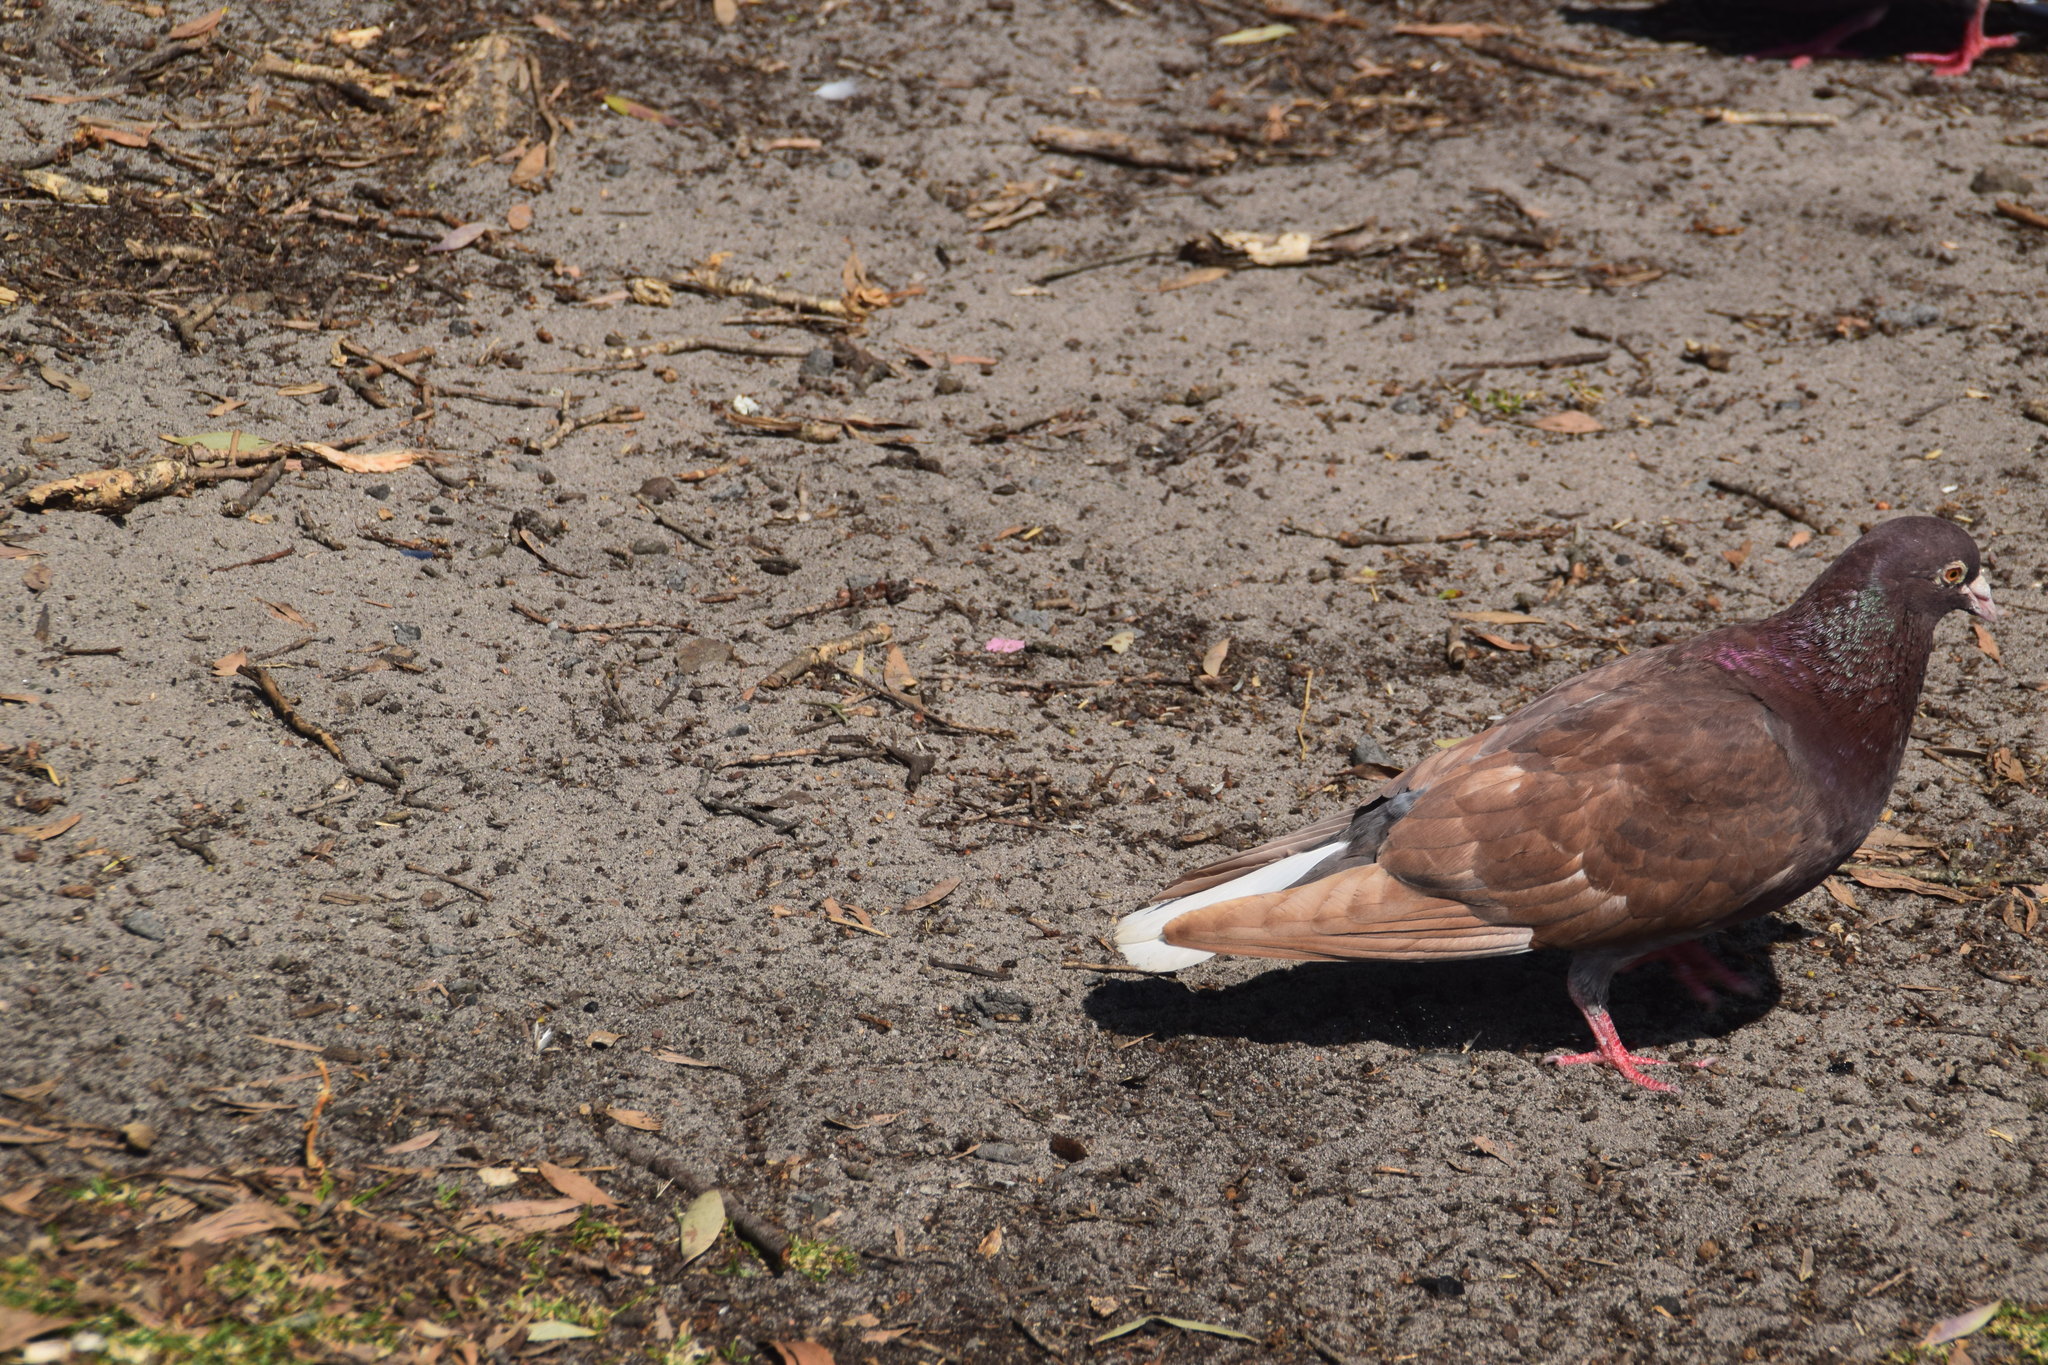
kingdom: Animalia
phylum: Chordata
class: Aves
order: Columbiformes
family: Columbidae
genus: Columba
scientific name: Columba livia
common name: Rock pigeon
